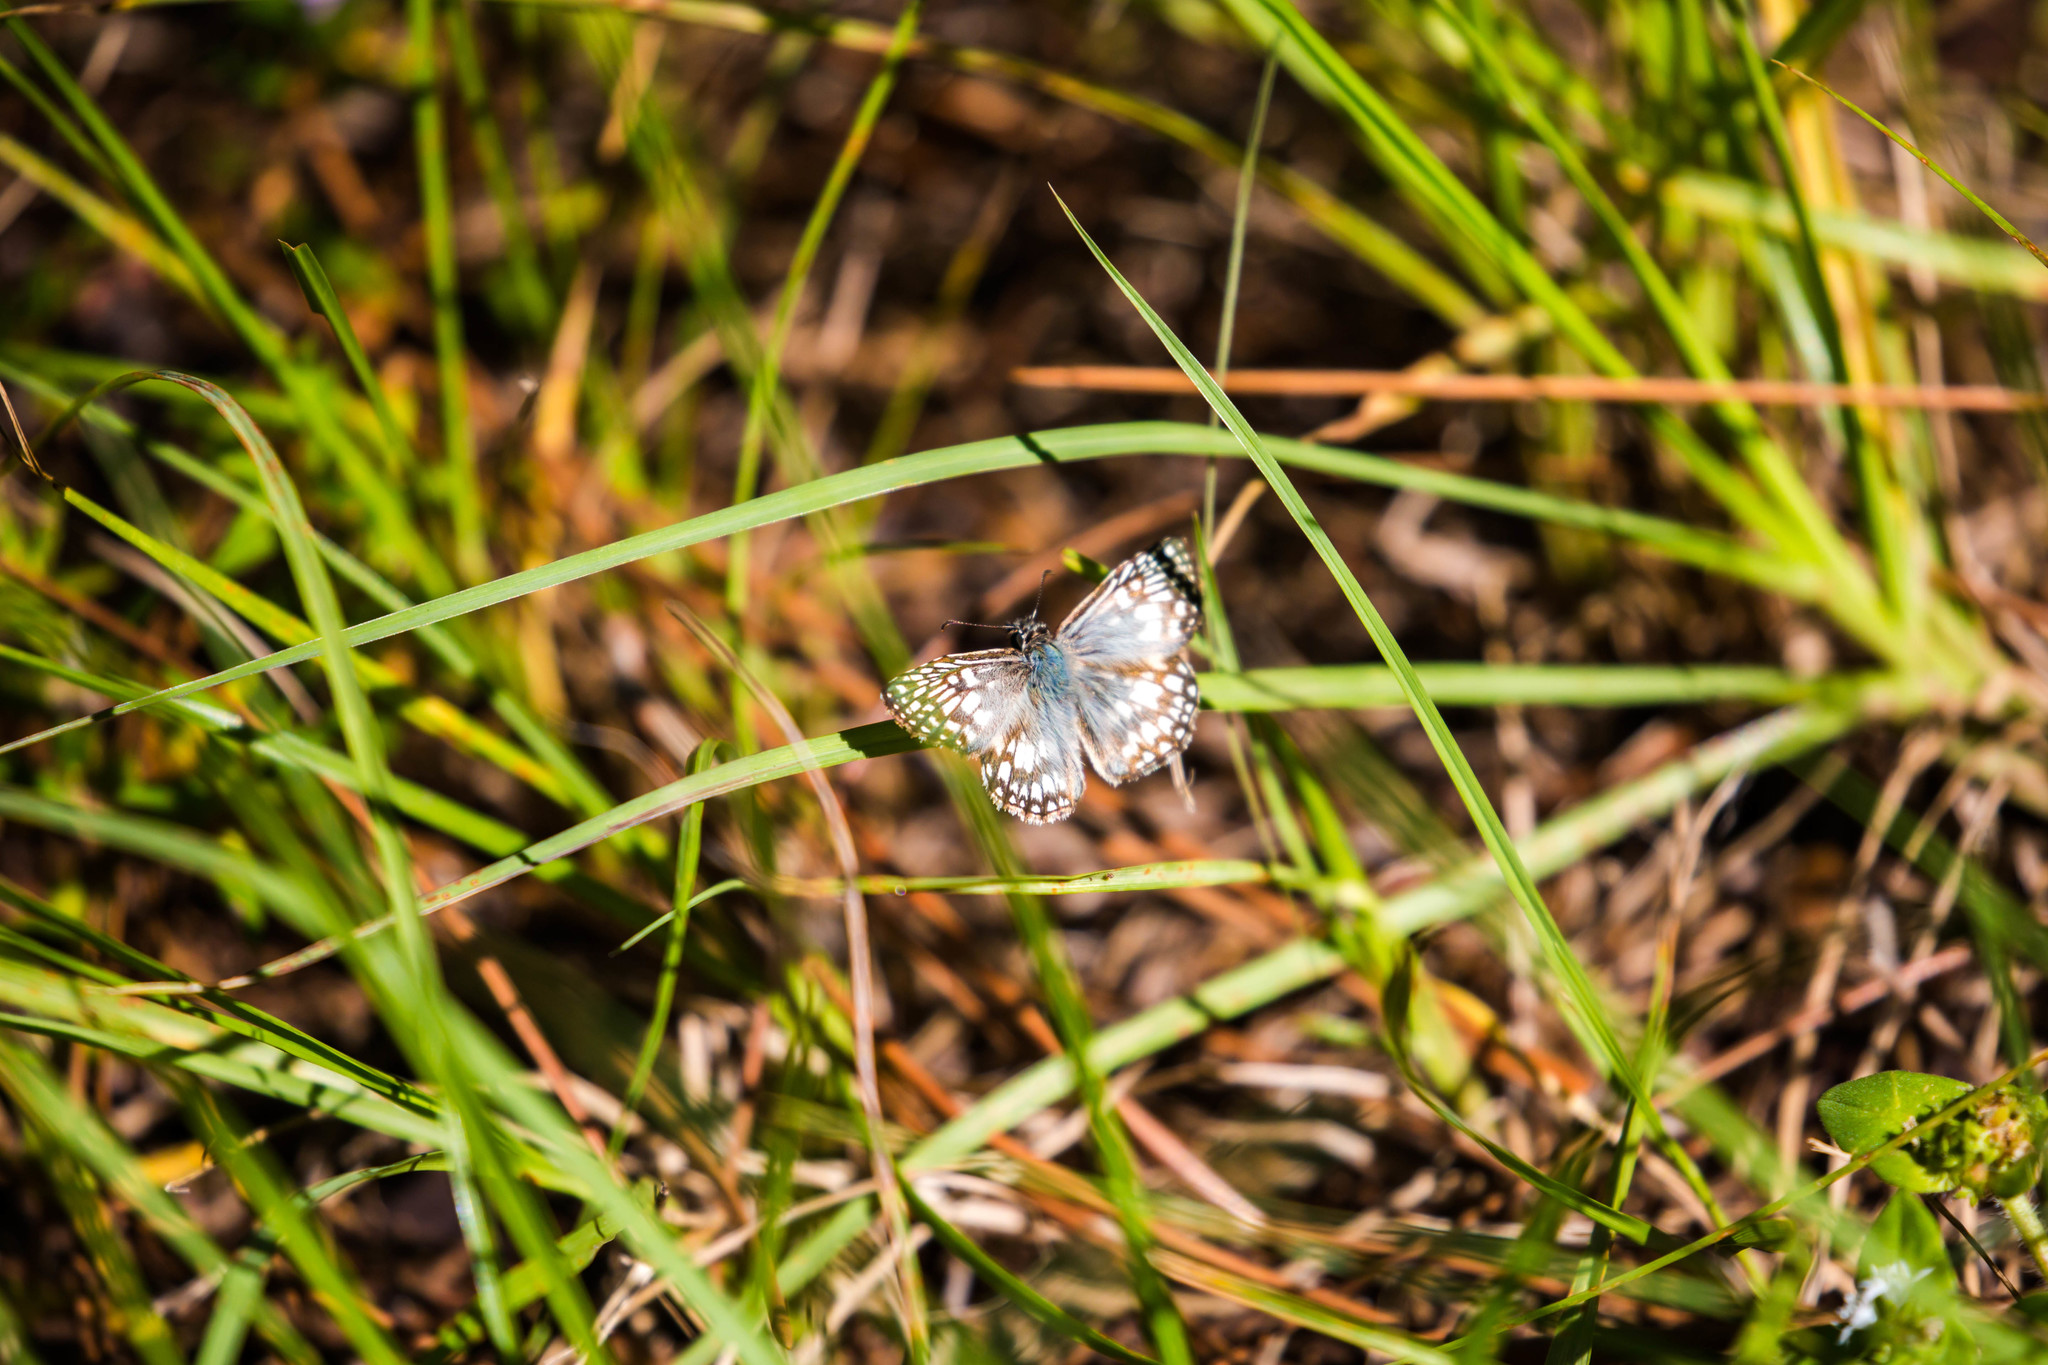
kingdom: Animalia
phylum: Arthropoda
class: Insecta
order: Lepidoptera
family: Hesperiidae
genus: Pyrgus
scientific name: Pyrgus oileus
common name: Tropical checkered-skipper
